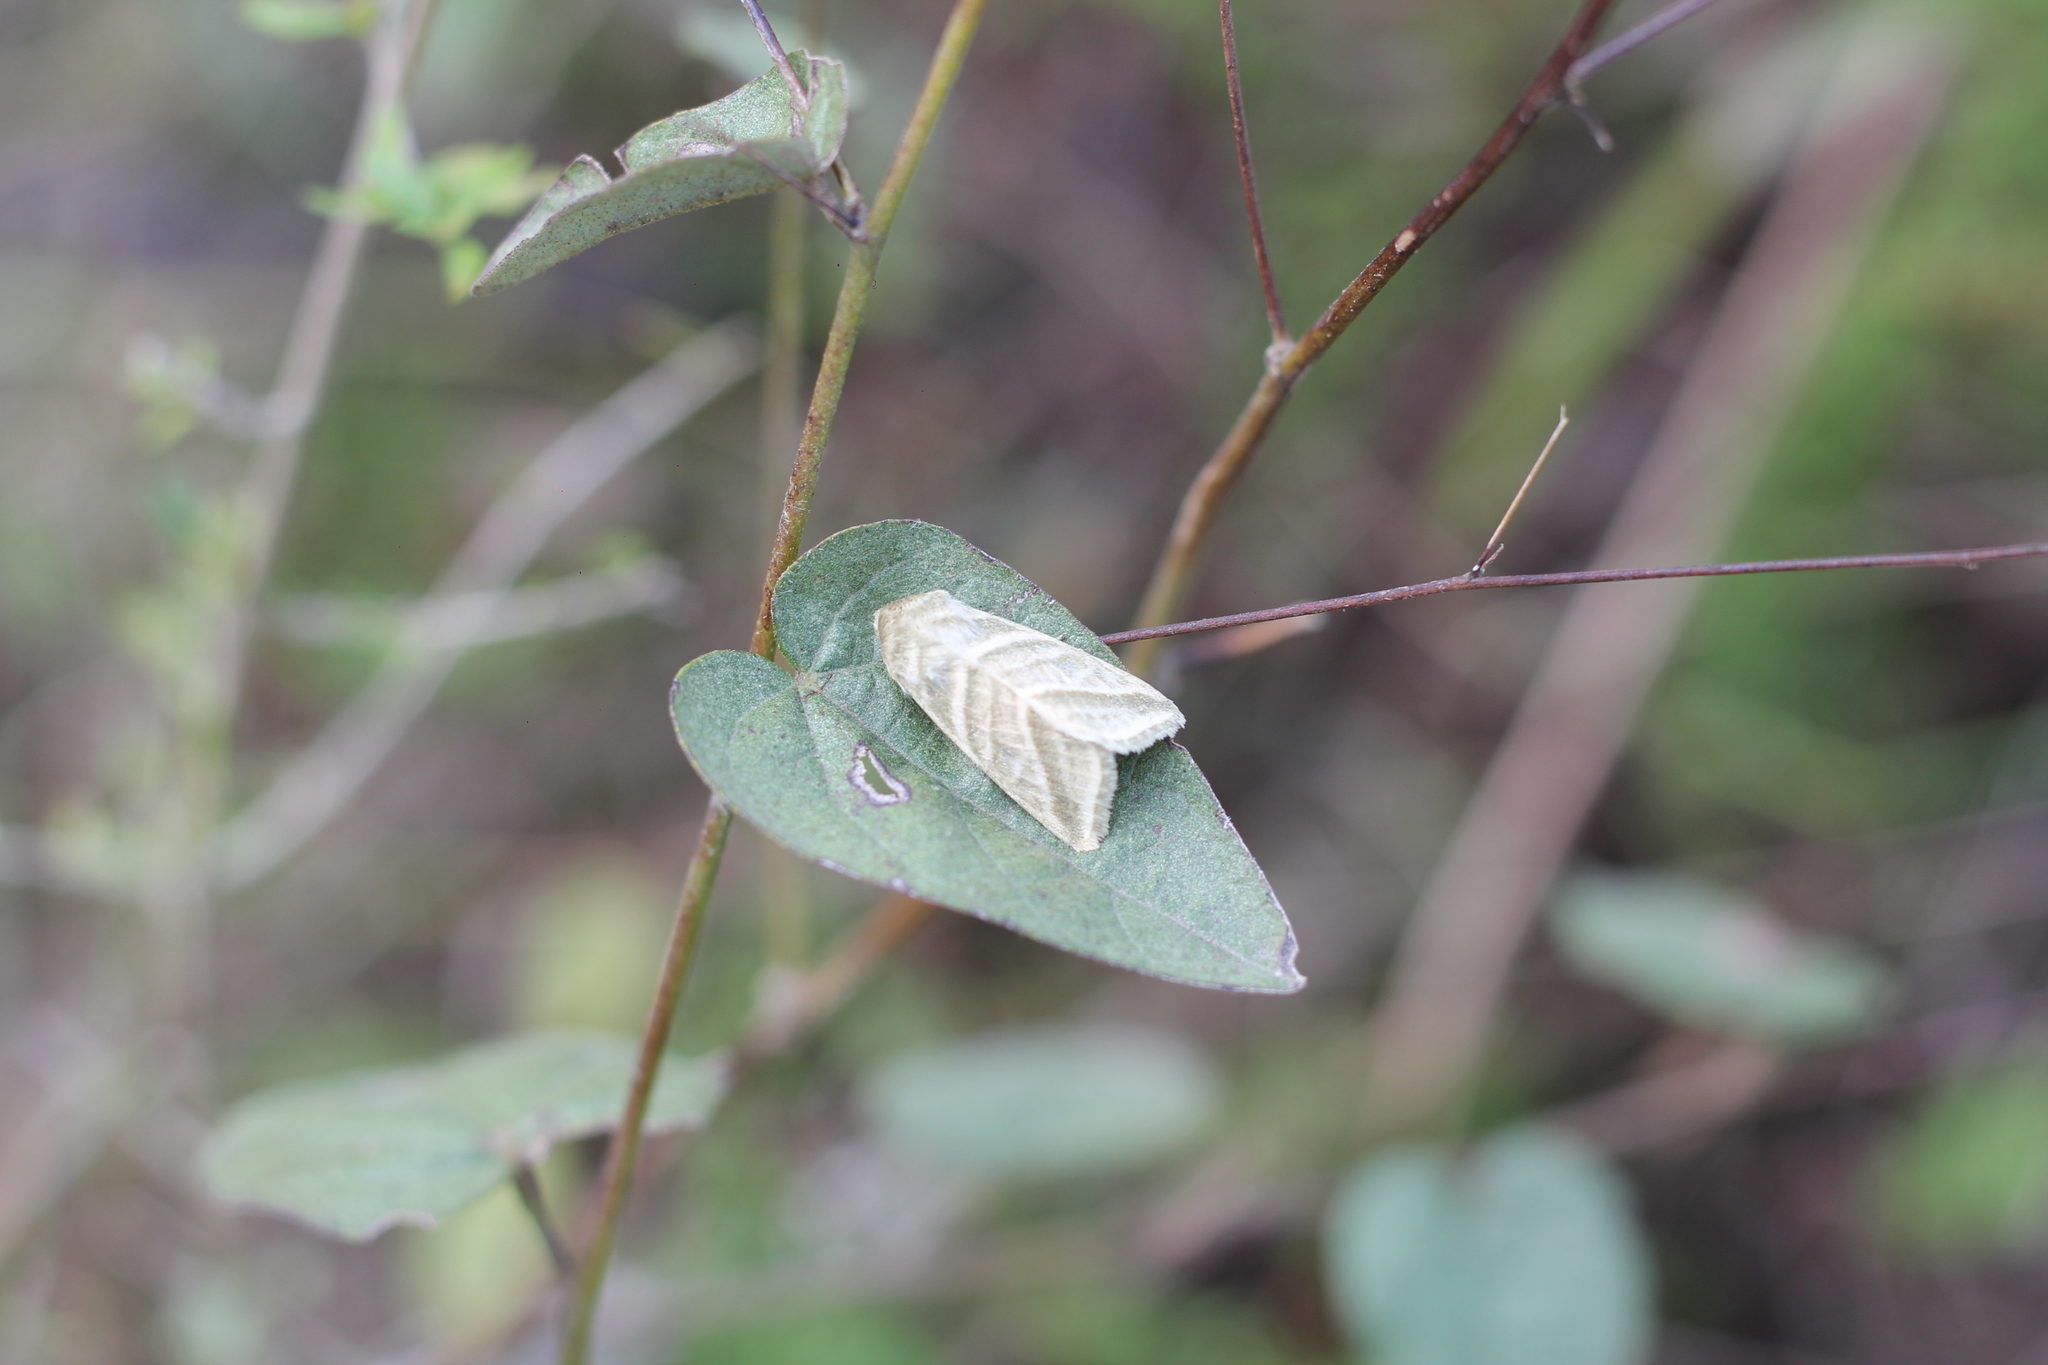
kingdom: Animalia
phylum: Arthropoda
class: Insecta
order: Lepidoptera
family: Noctuidae
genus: Chloridea
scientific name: Chloridea virescens
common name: Tobacco budworm
